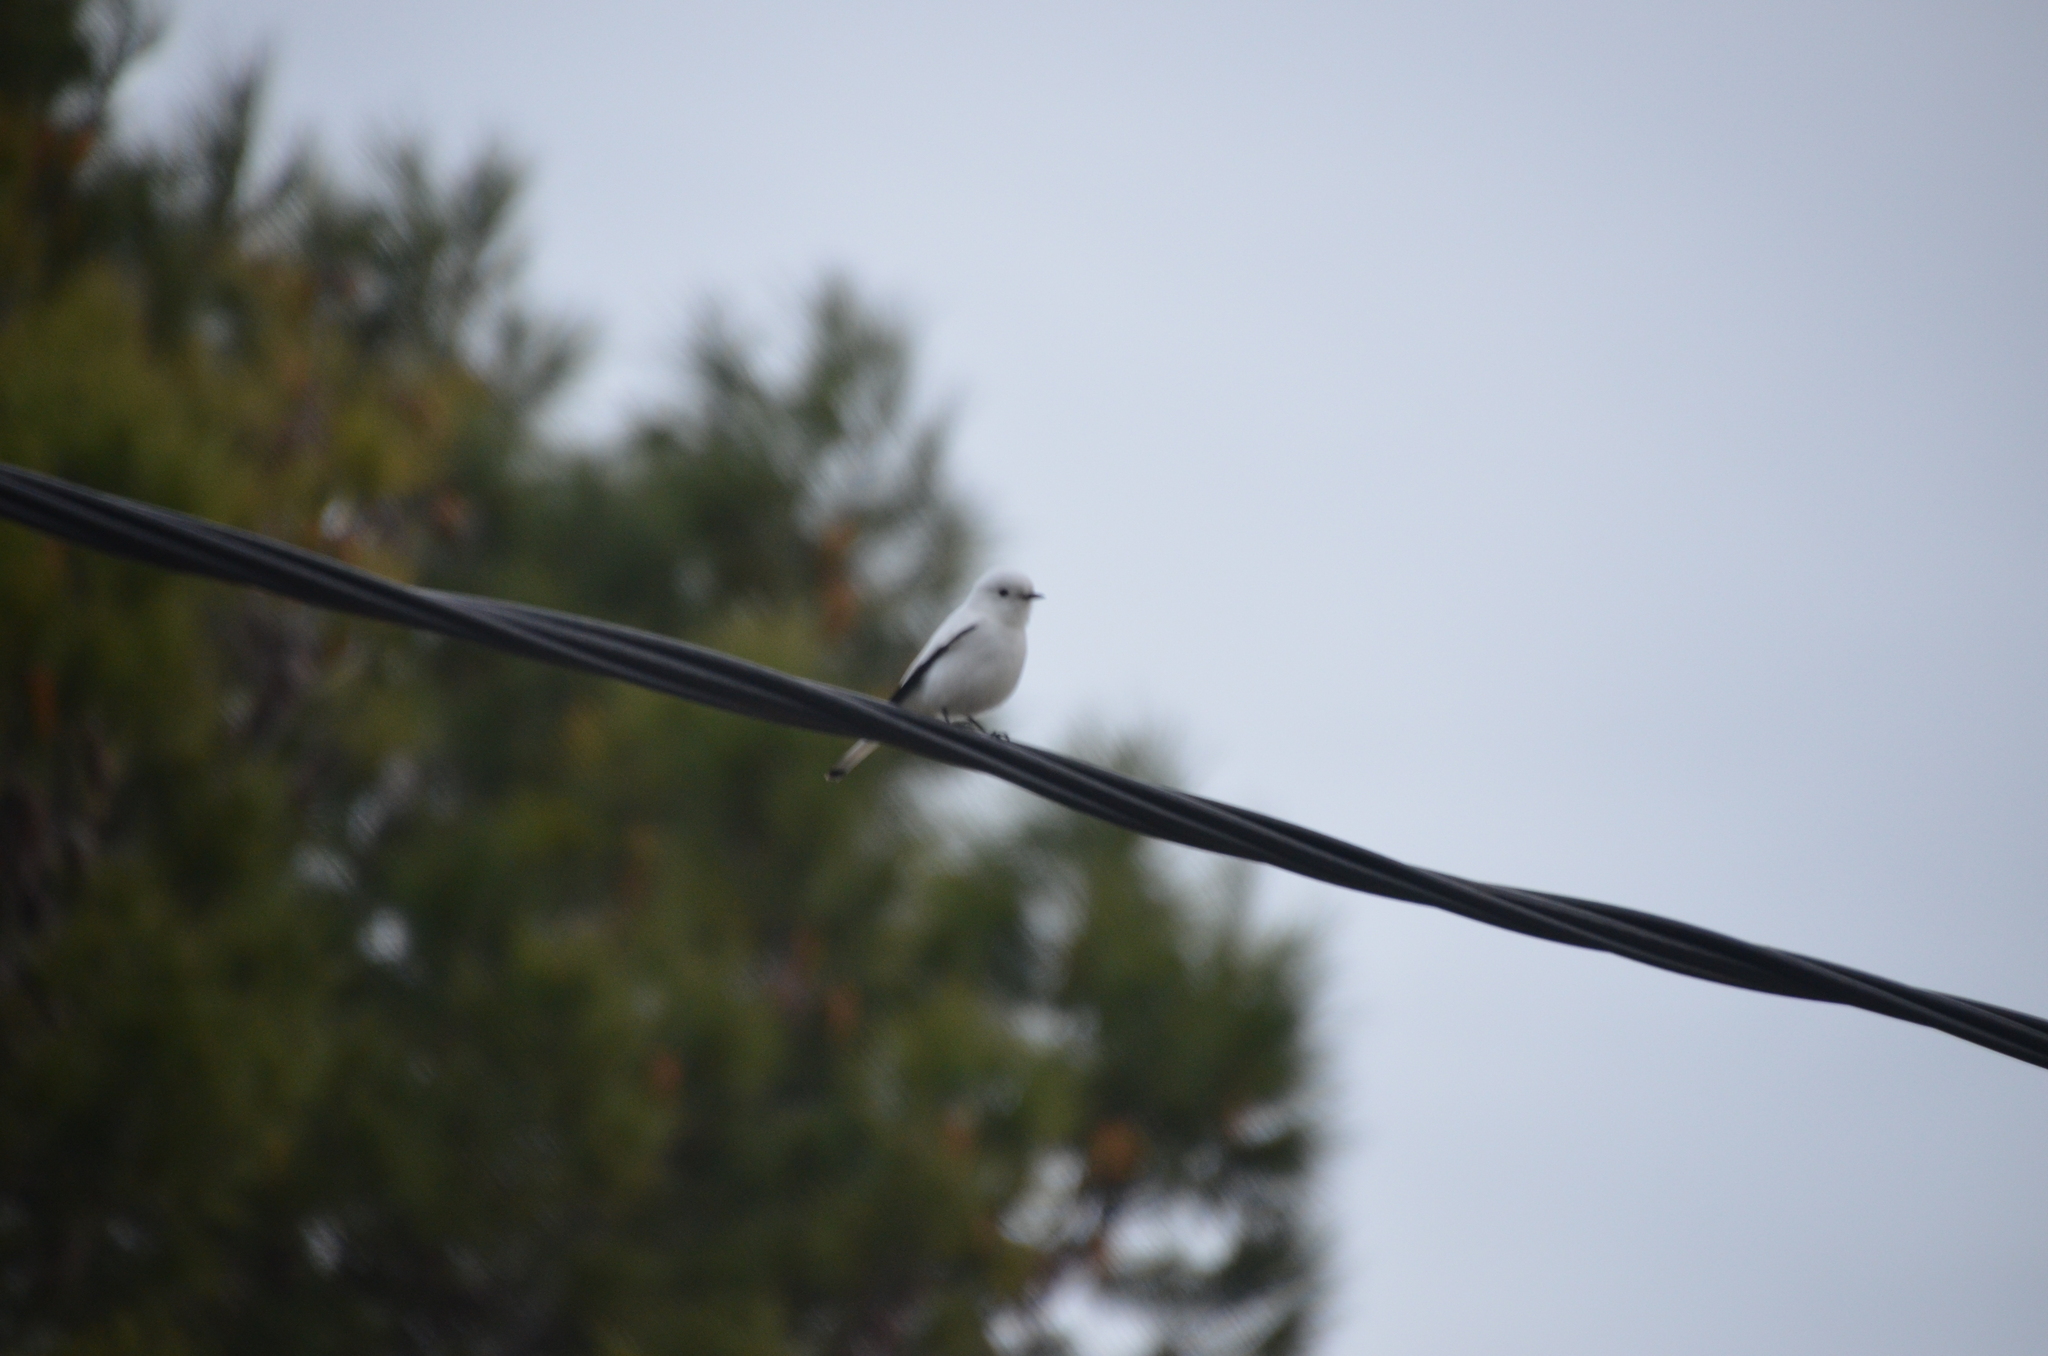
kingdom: Animalia
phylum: Chordata
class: Aves
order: Passeriformes
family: Tyrannidae
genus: Xolmis
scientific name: Xolmis irupero
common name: White monjita
